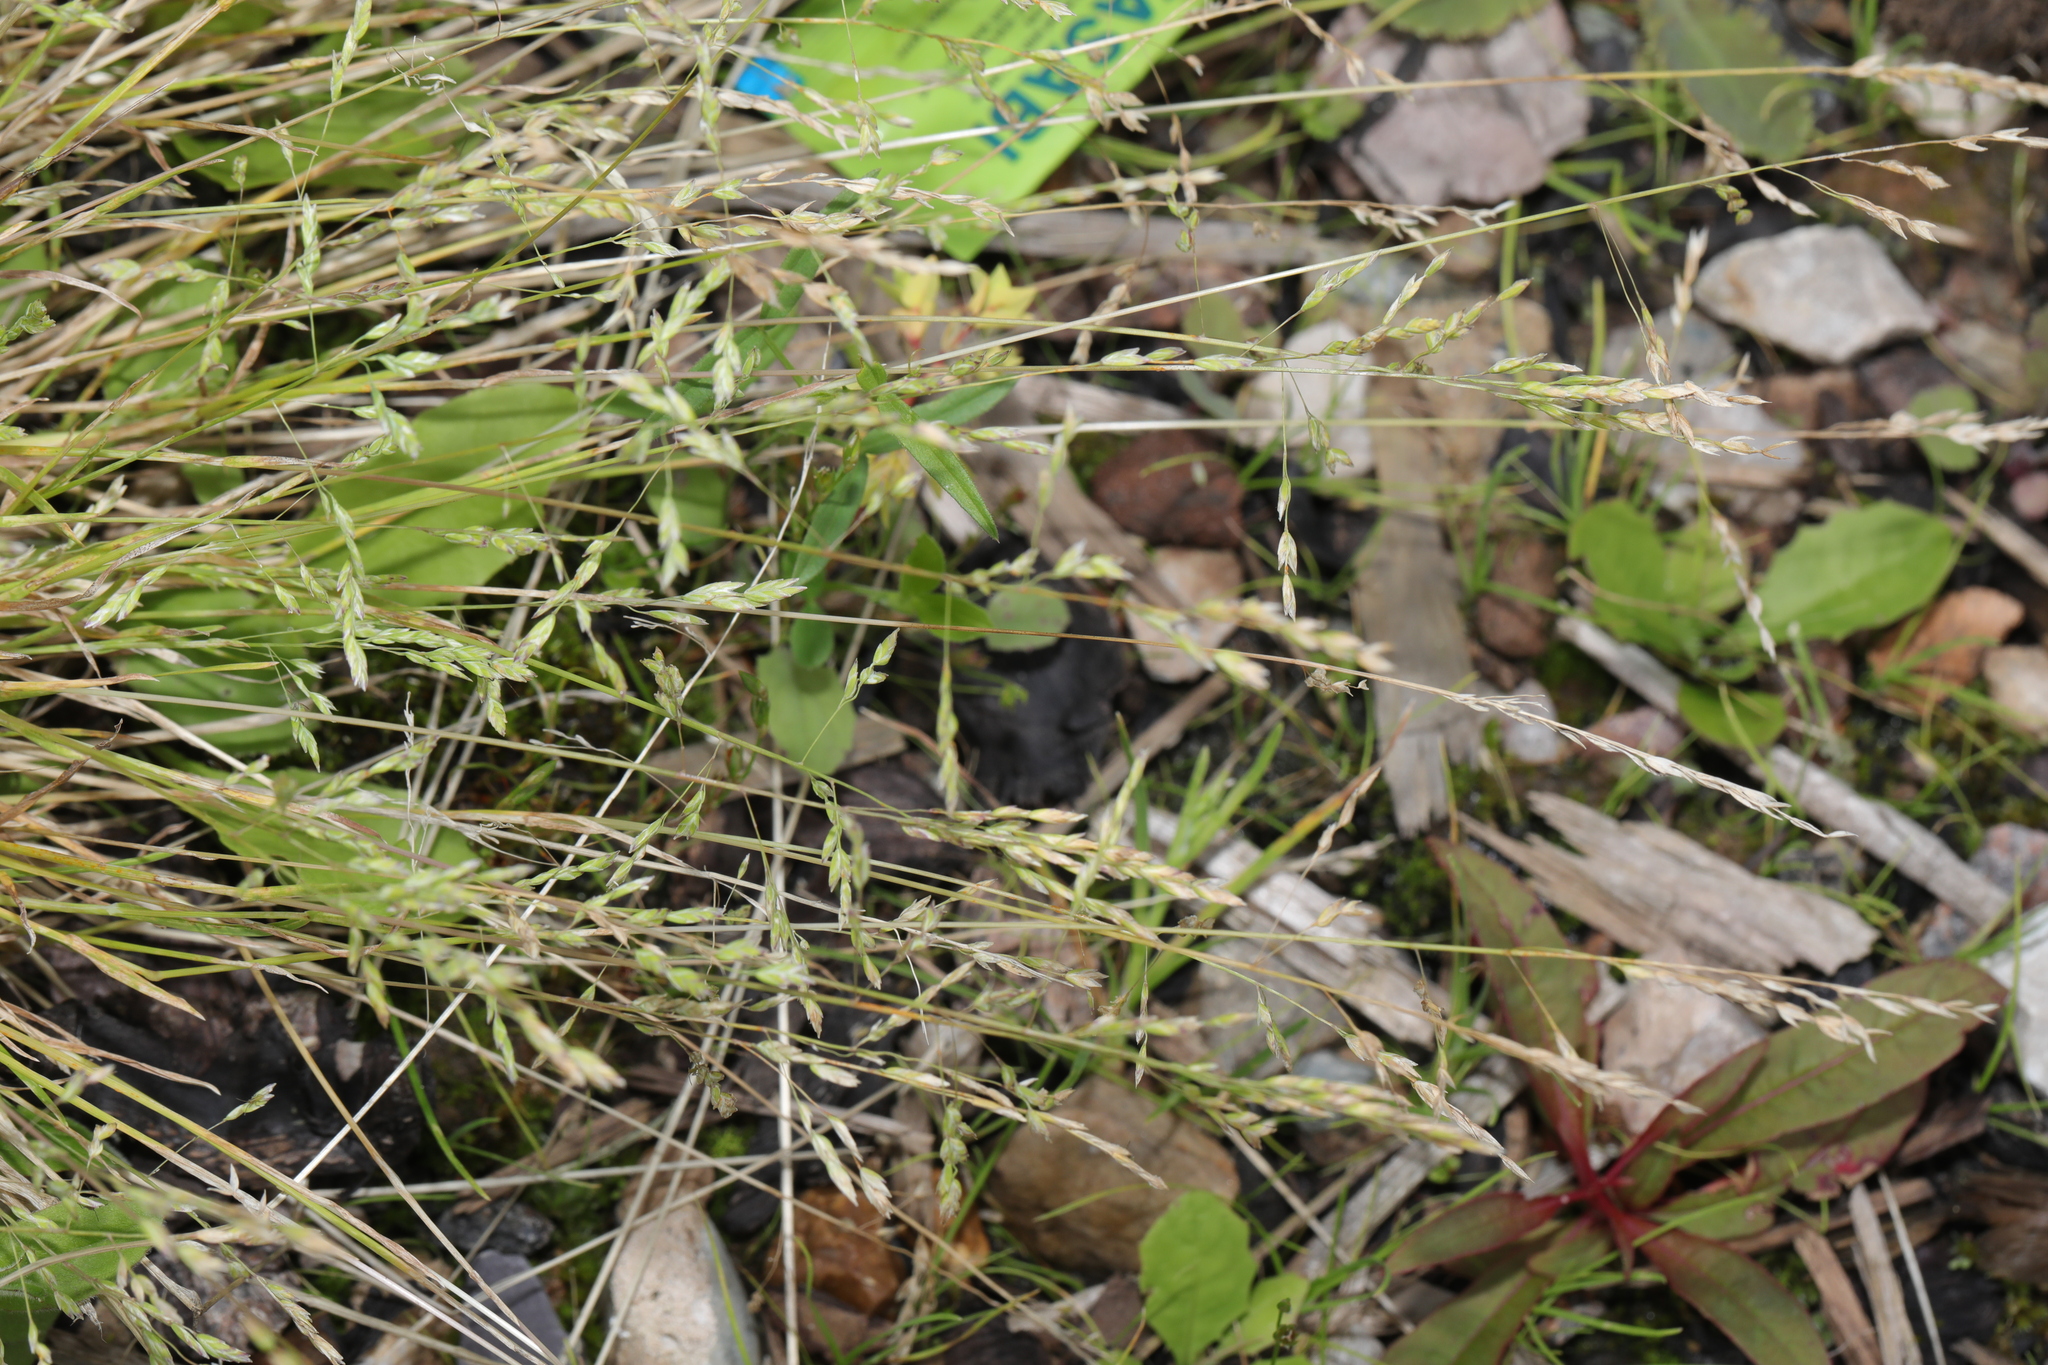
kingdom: Plantae
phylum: Tracheophyta
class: Liliopsida
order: Poales
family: Poaceae
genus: Poa
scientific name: Poa annua
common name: Annual bluegrass
